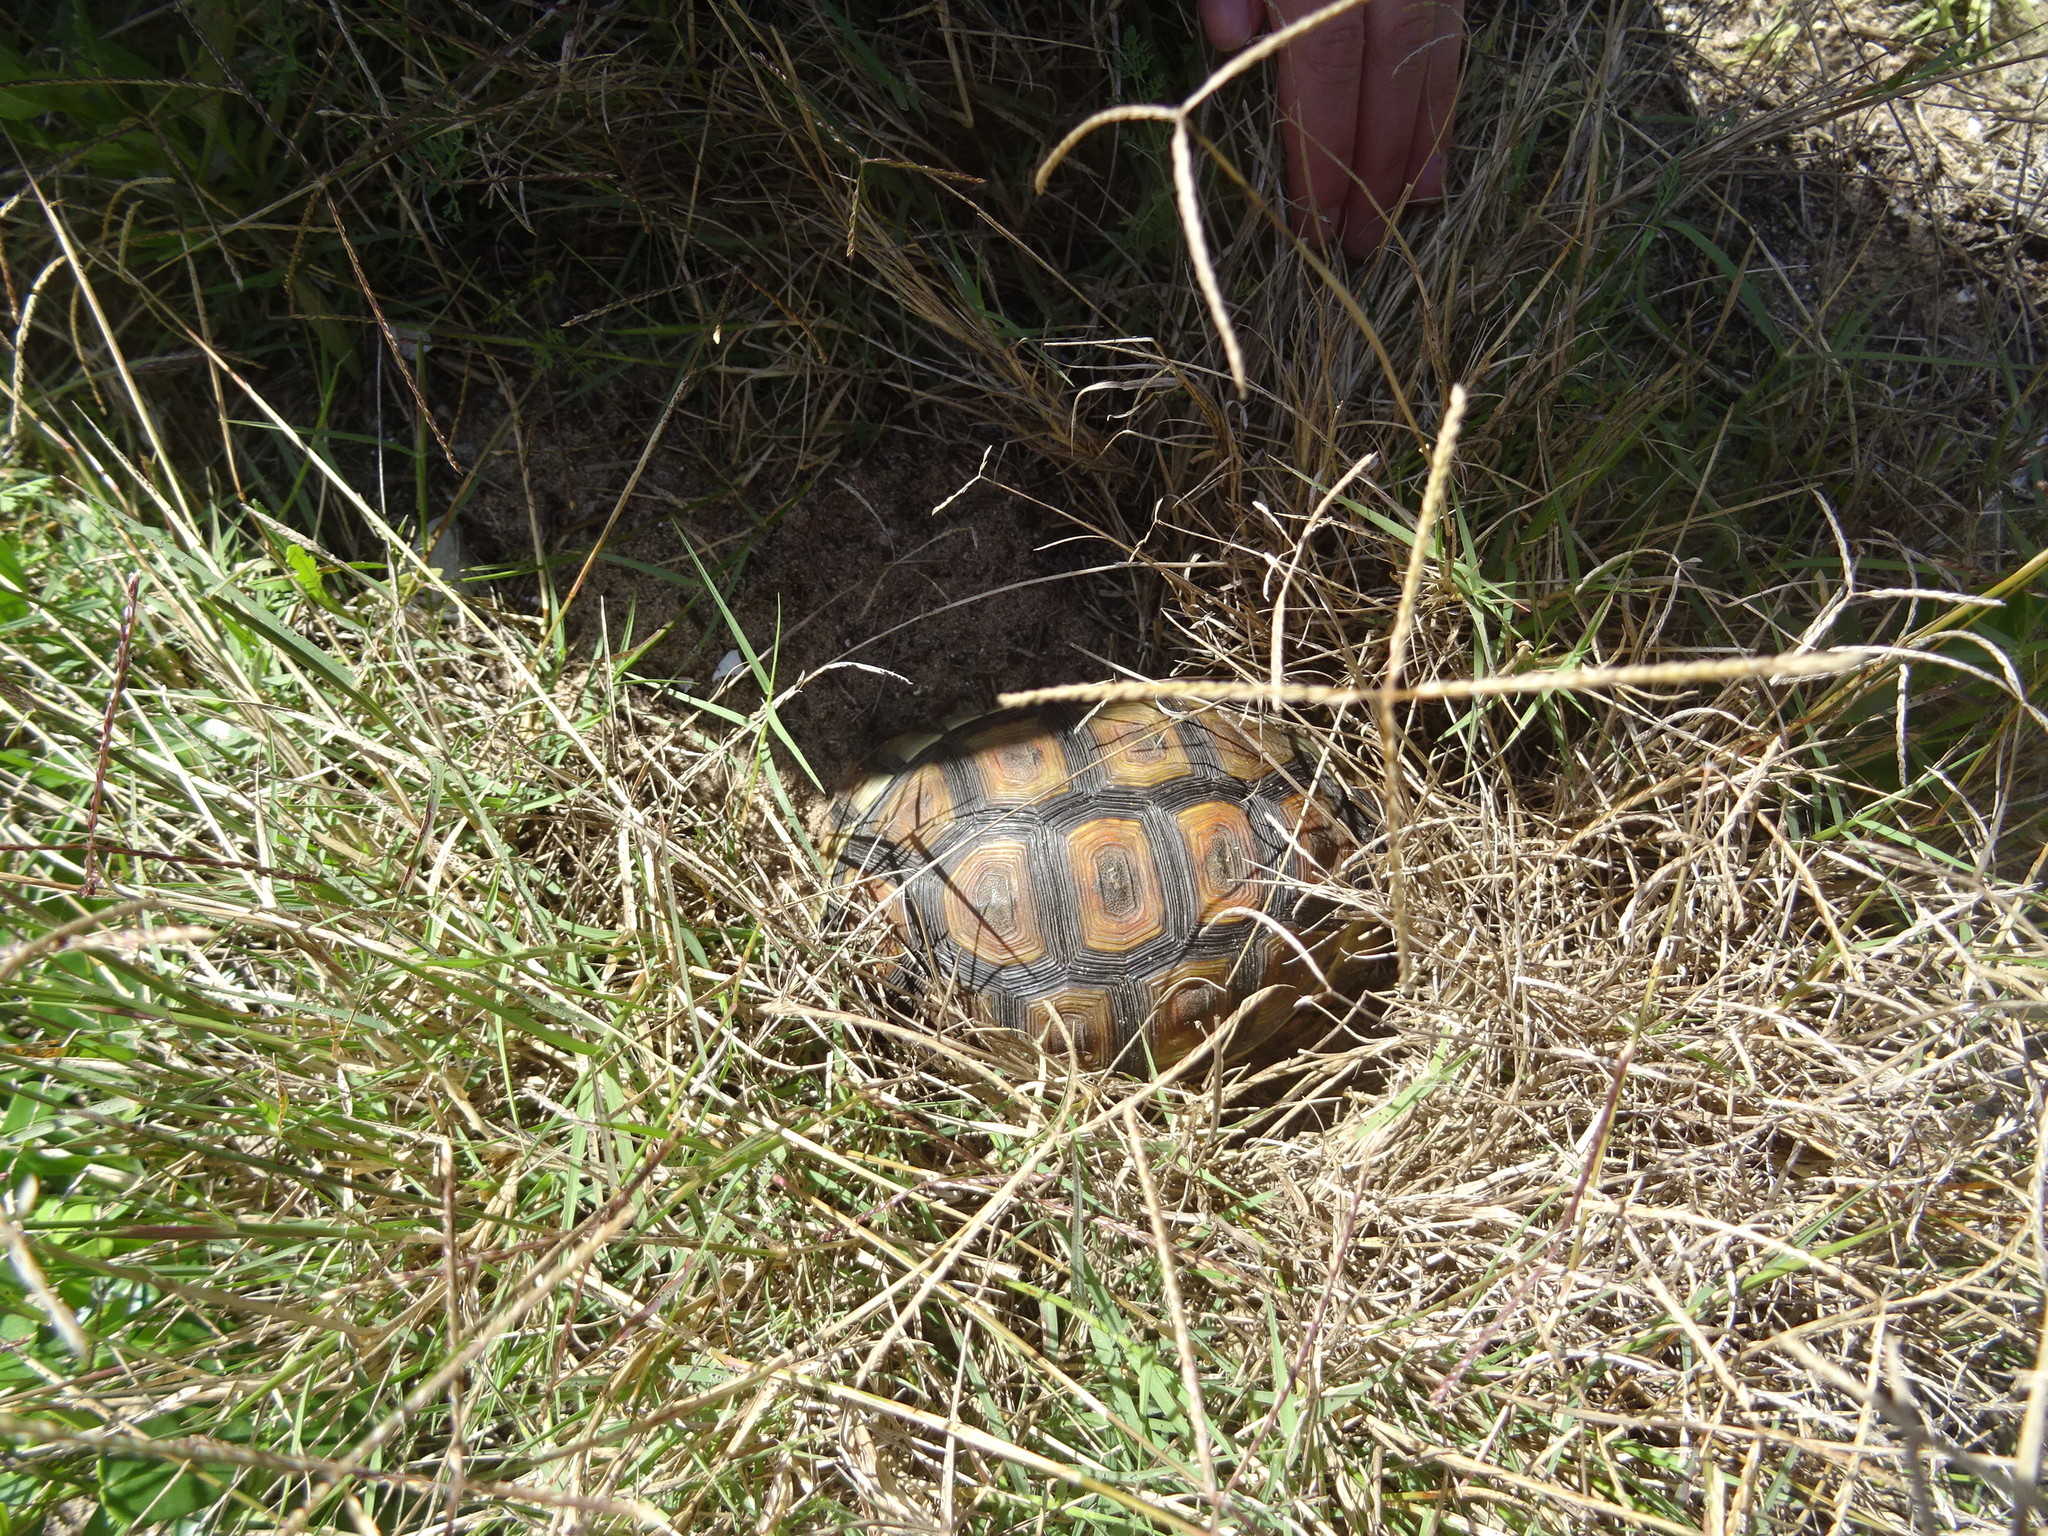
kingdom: Animalia
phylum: Chordata
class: Testudines
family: Testudinidae
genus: Chersina
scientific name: Chersina angulata
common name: South african bowsprit tortoise
